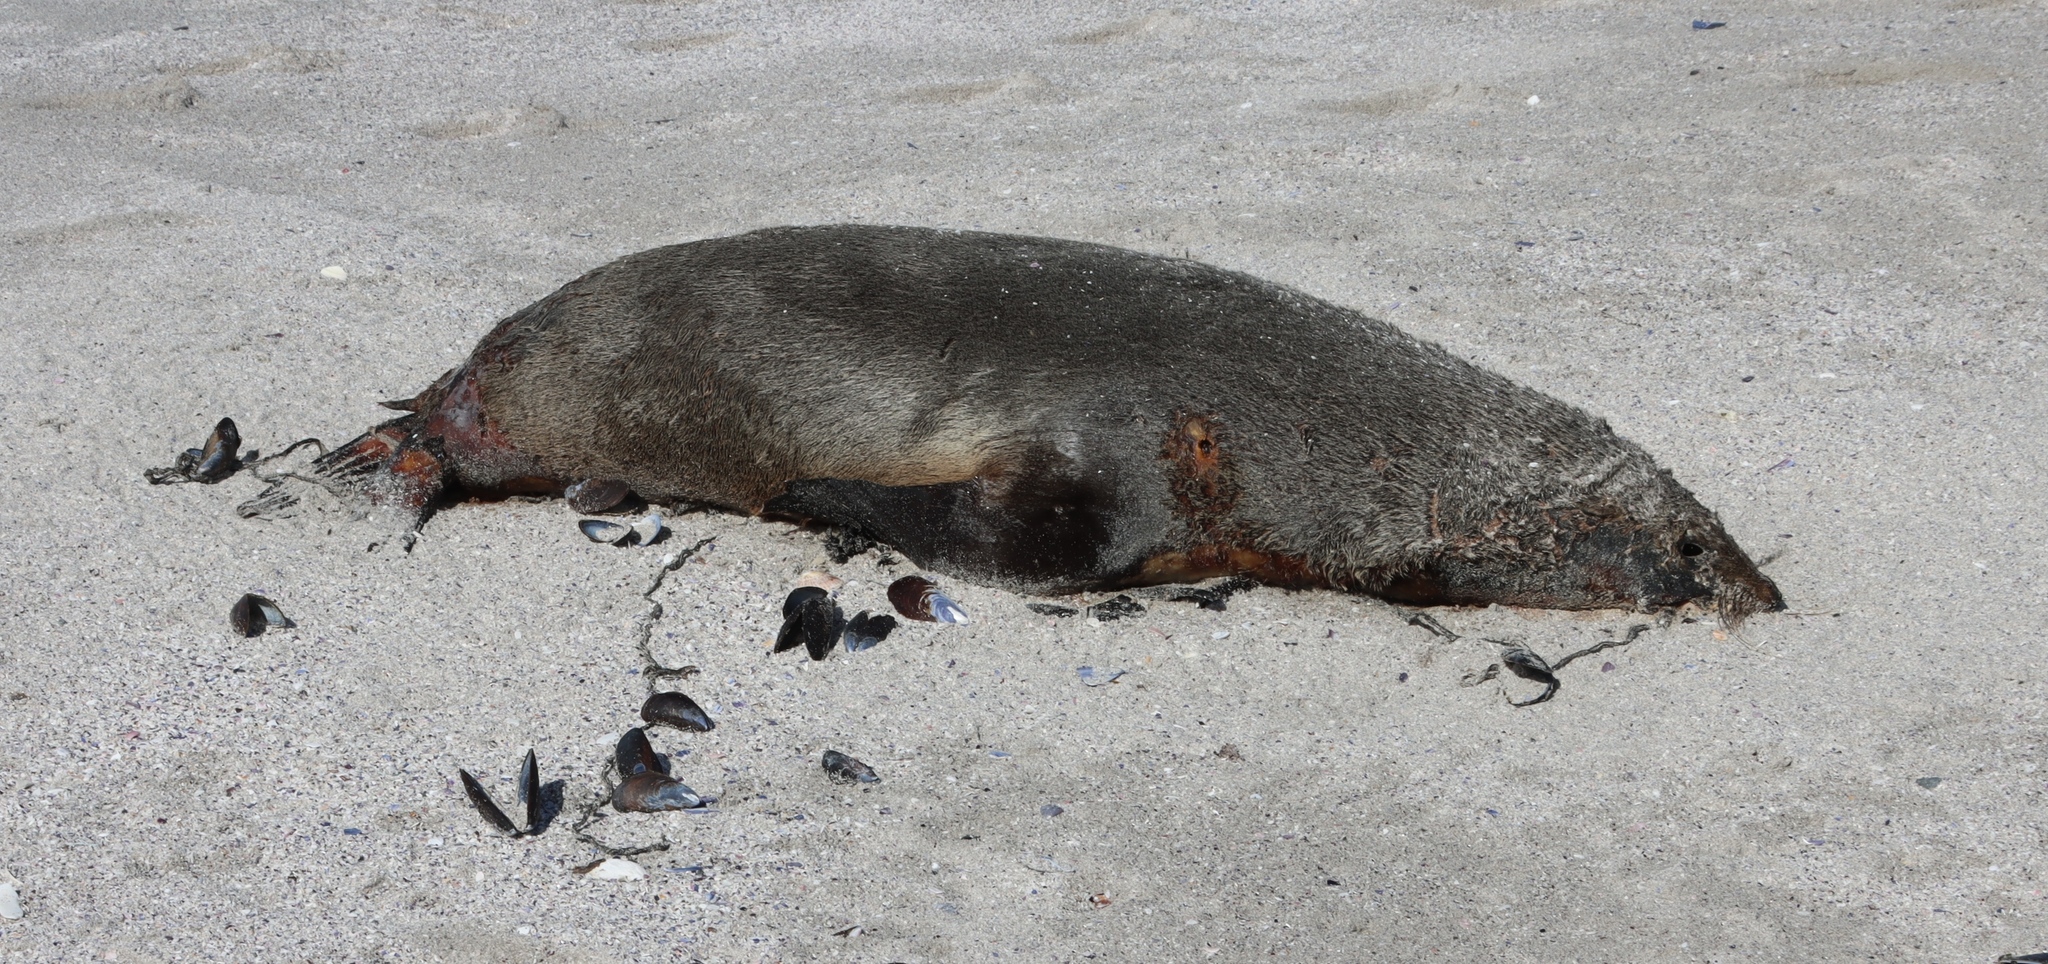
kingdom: Animalia
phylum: Chordata
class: Mammalia
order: Carnivora
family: Otariidae
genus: Arctocephalus
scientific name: Arctocephalus pusillus
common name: Brown fur seal
